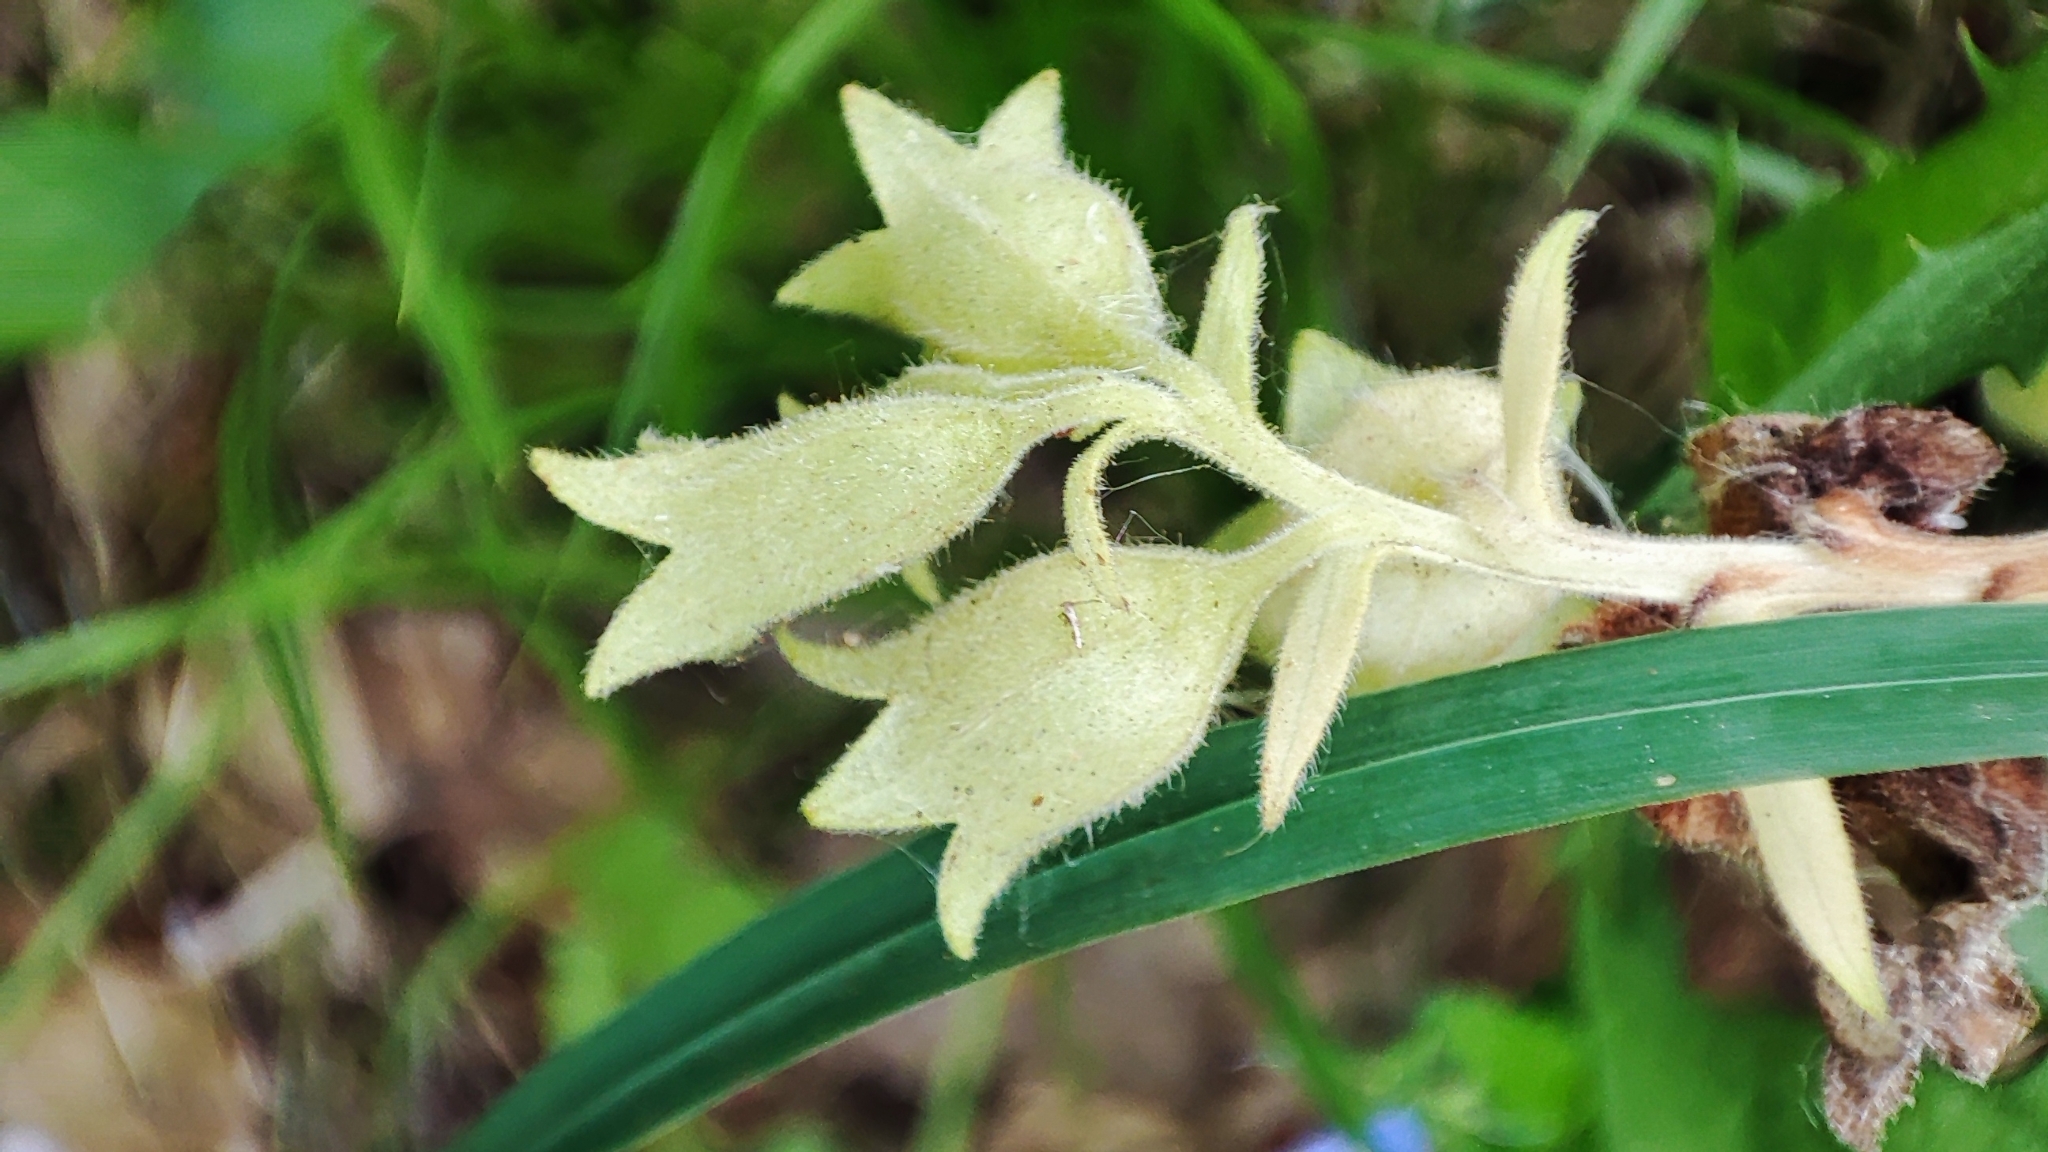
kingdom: Plantae
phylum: Tracheophyta
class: Magnoliopsida
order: Boraginales
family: Boraginaceae
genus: Pulmonaria
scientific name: Pulmonaria mollis
